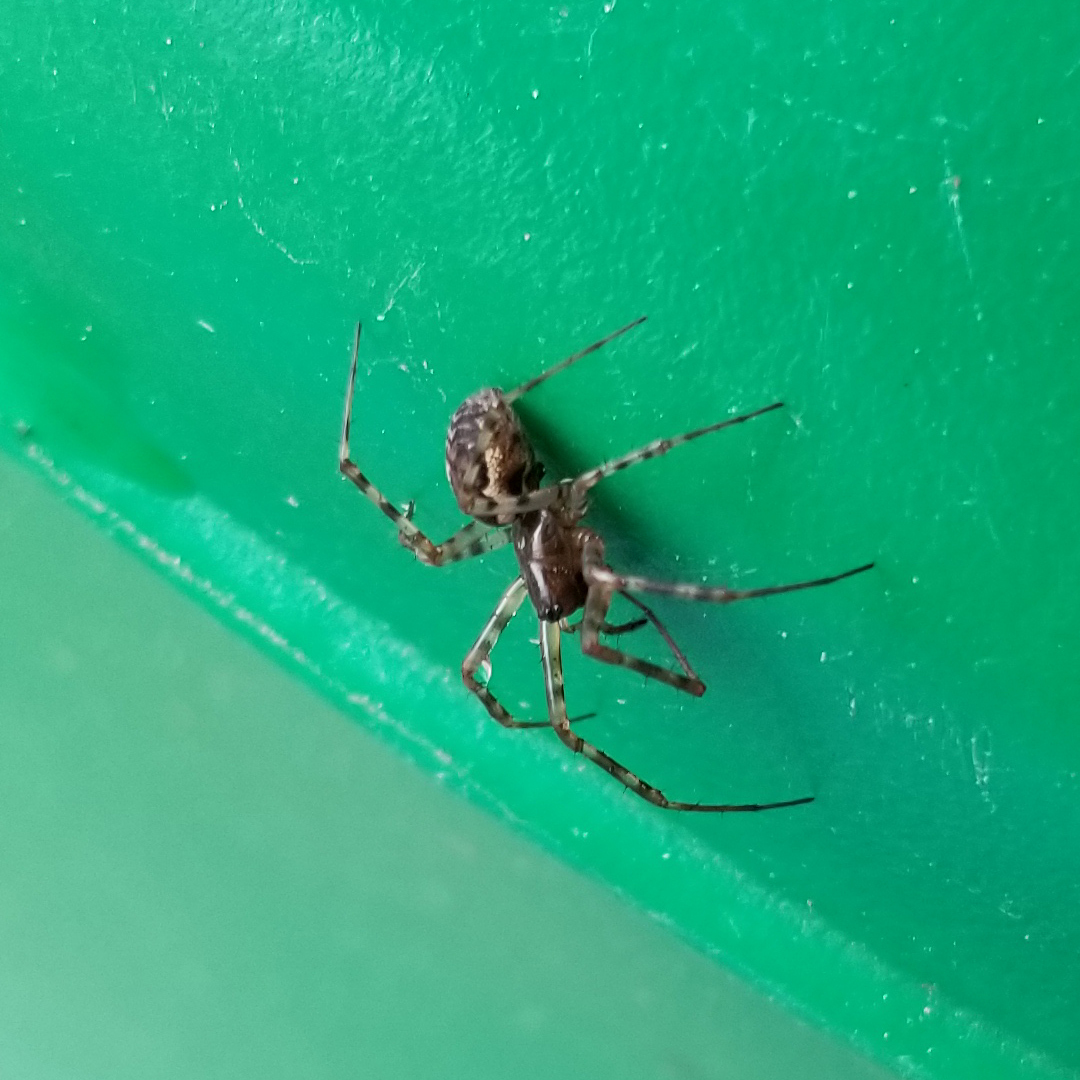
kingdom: Animalia
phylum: Arthropoda
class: Arachnida
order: Araneae
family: Linyphiidae
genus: Neriene
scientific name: Neriene montana
